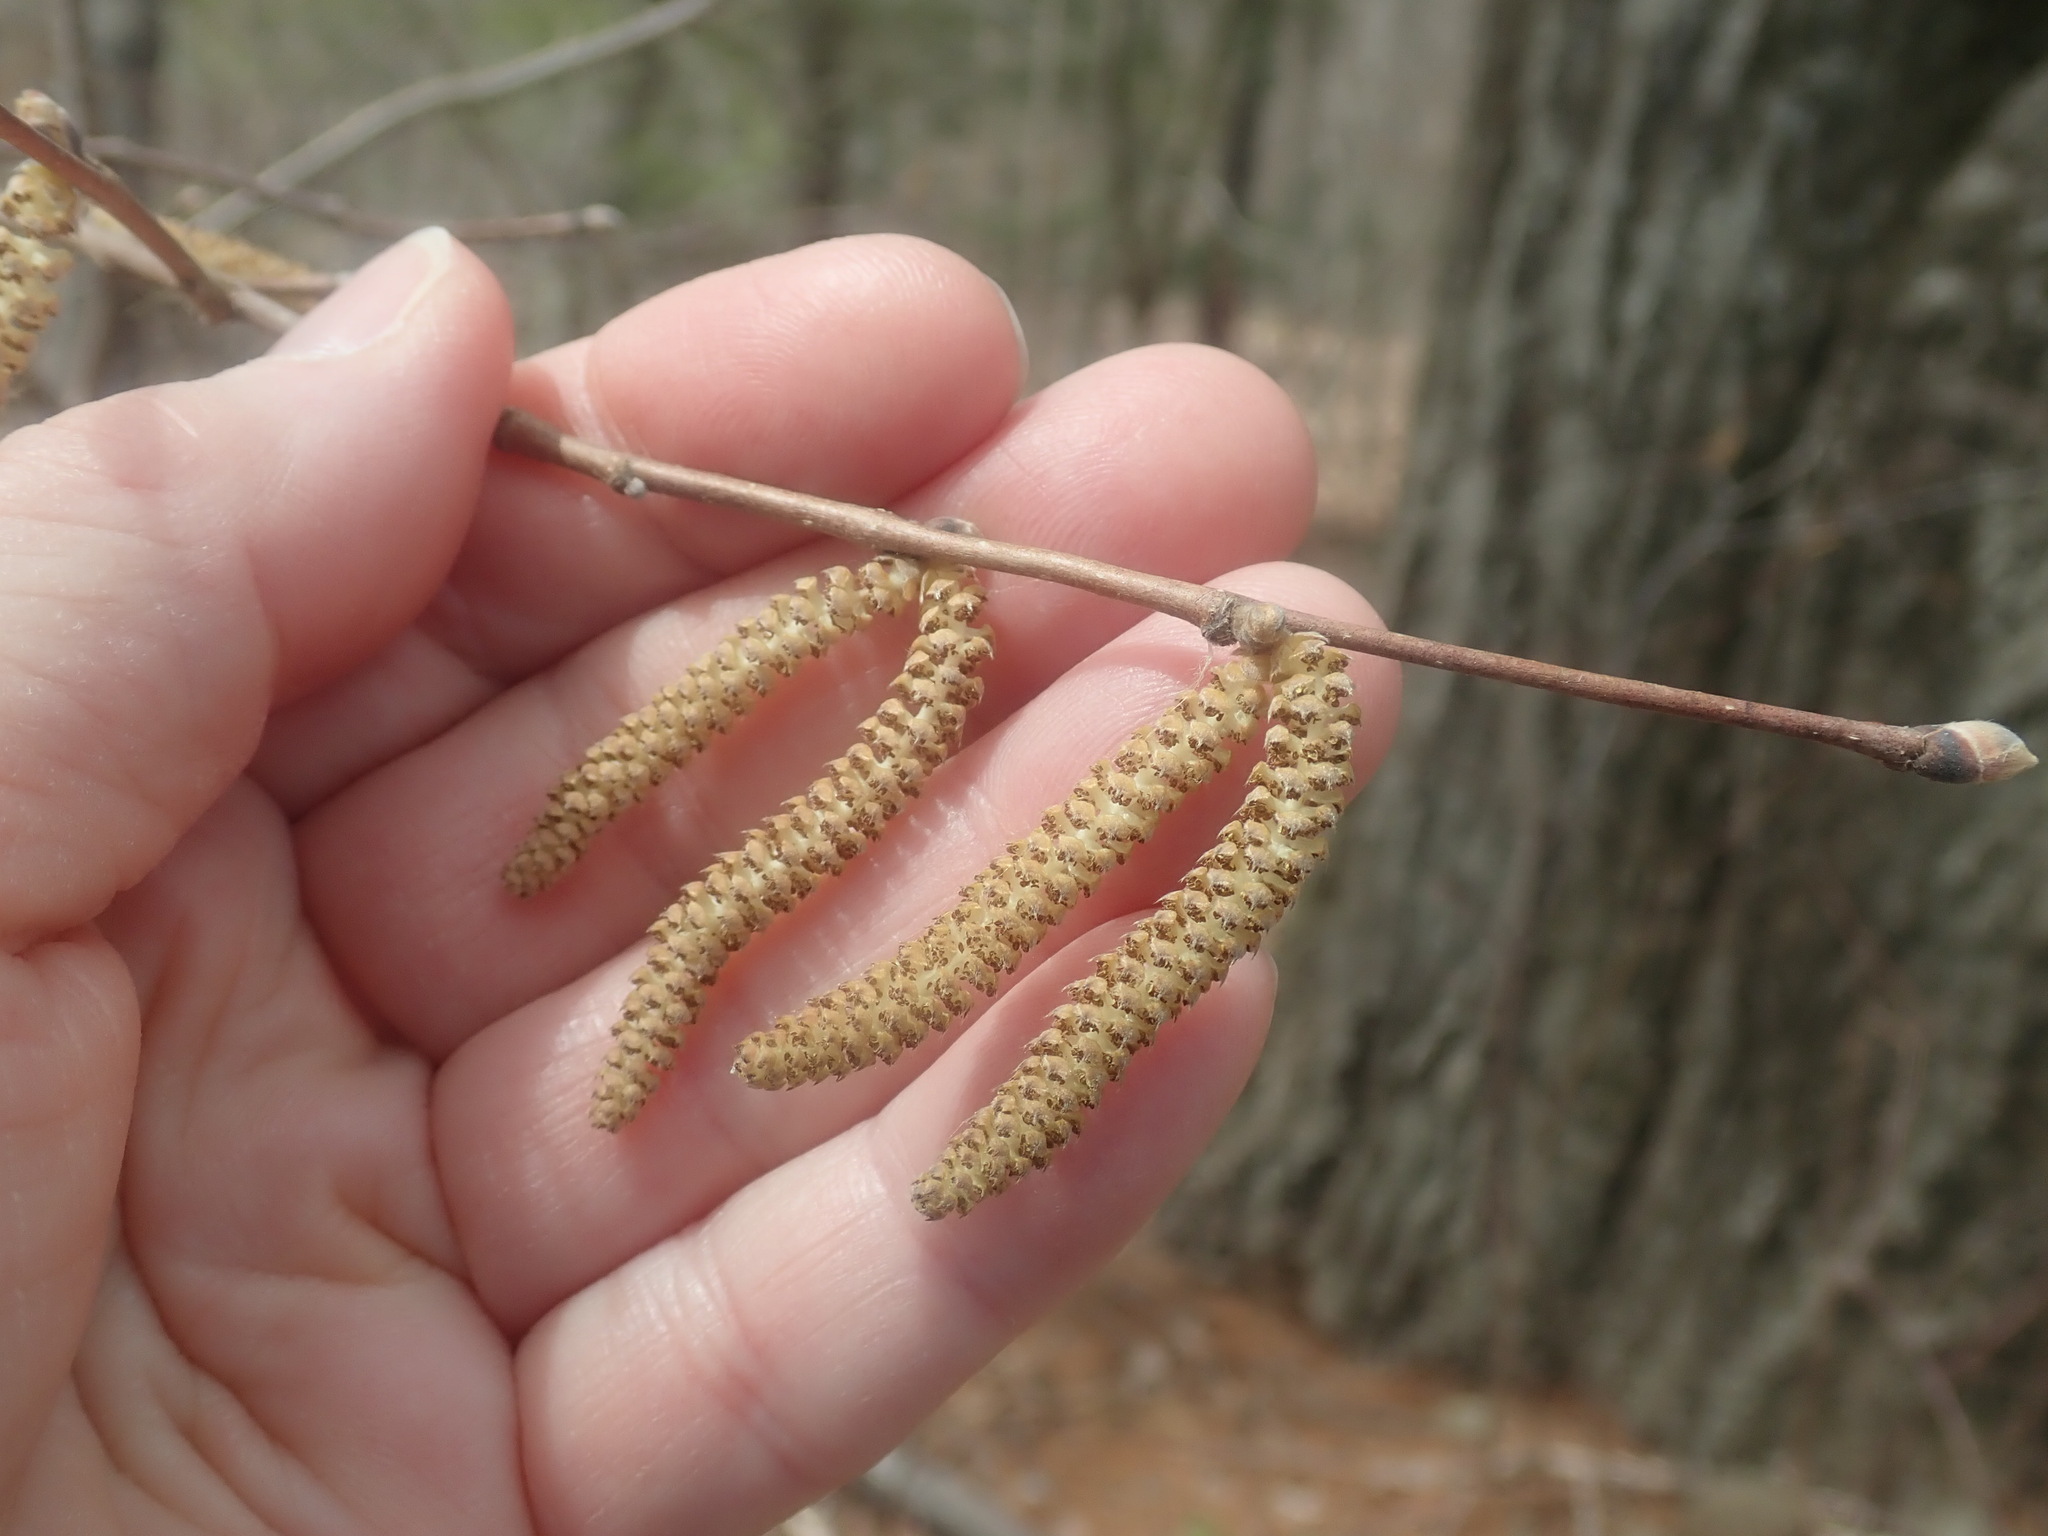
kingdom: Plantae
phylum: Tracheophyta
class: Magnoliopsida
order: Fagales
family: Betulaceae
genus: Corylus
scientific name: Corylus cornuta
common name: Beaked hazel
